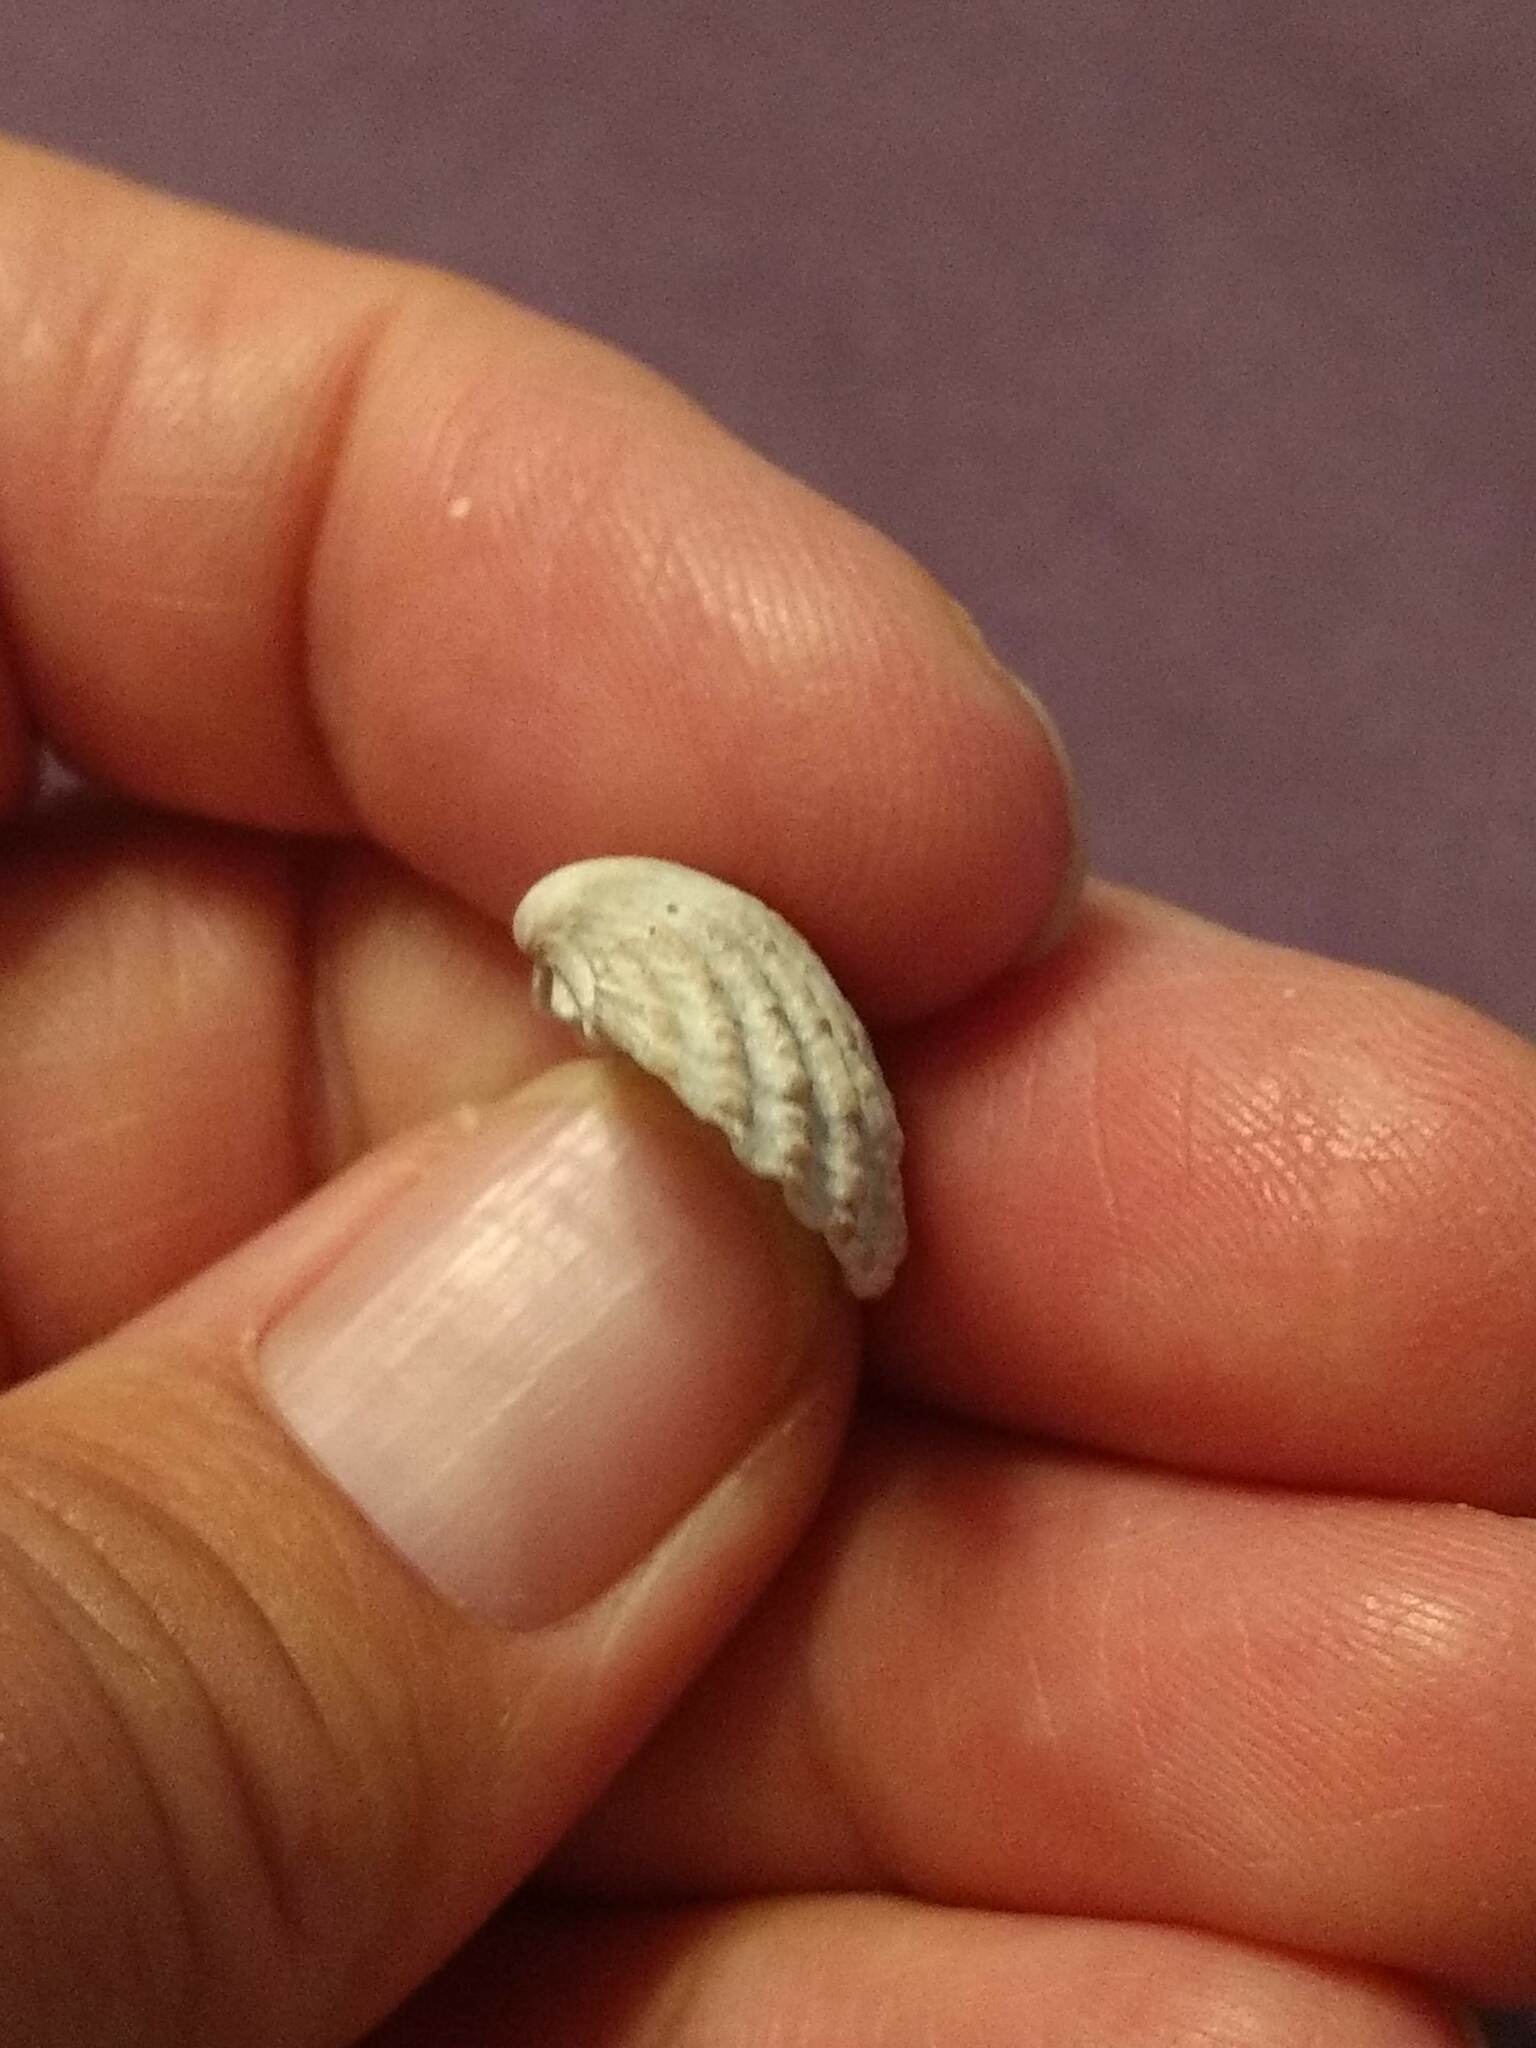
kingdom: Animalia
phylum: Mollusca
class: Bivalvia
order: Carditida
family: Carditidae
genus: Cardites
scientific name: Cardites floridanus
